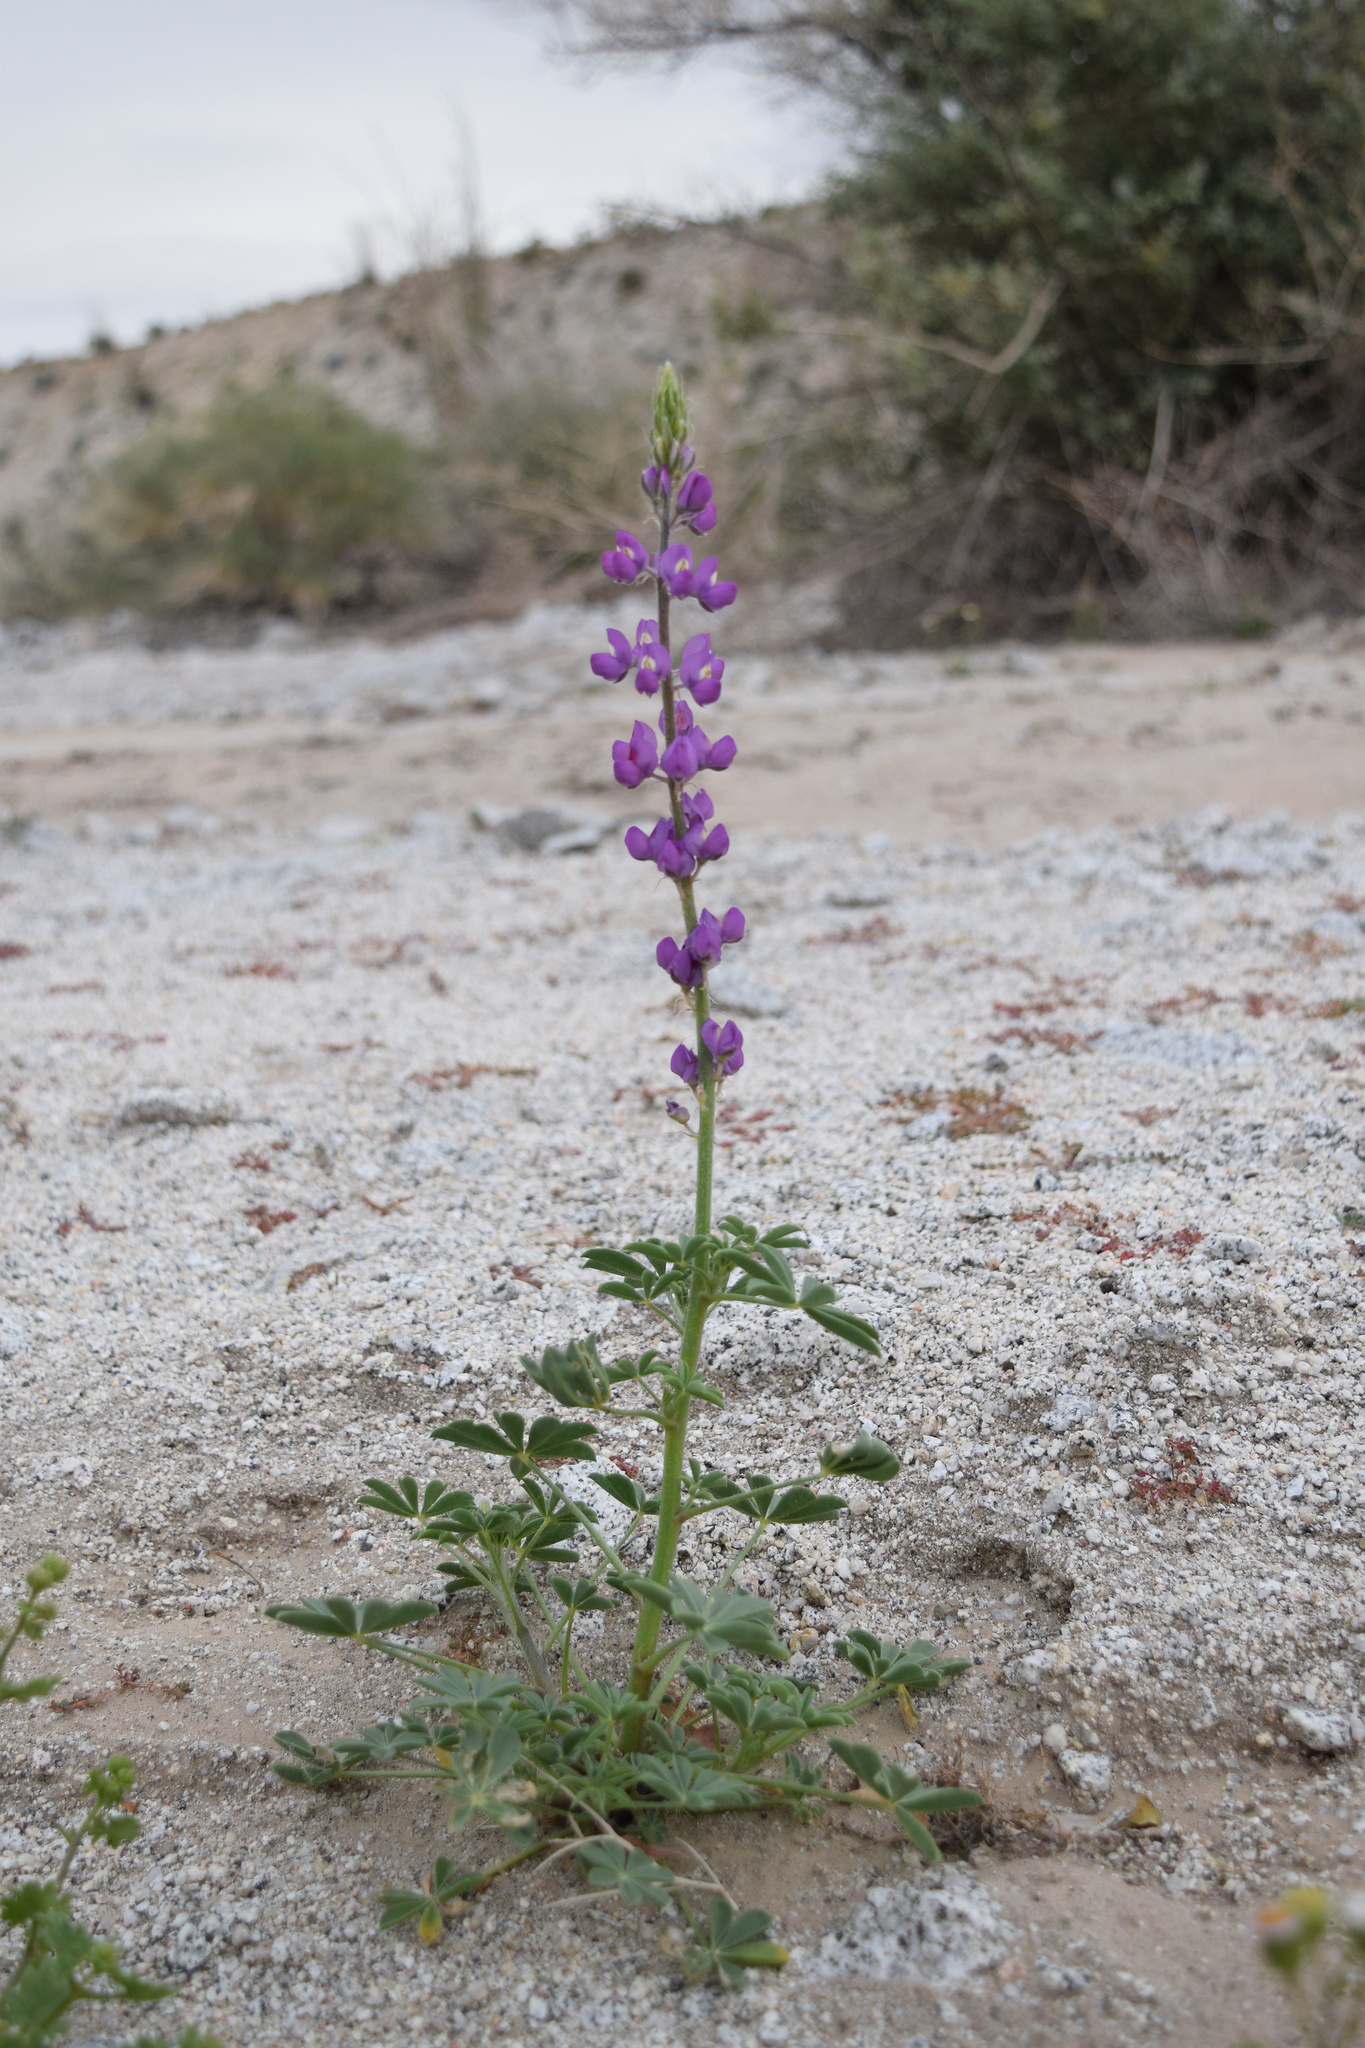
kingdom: Plantae
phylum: Tracheophyta
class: Magnoliopsida
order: Fabales
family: Fabaceae
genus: Lupinus
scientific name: Lupinus arizonicus
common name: Arizona lupine
